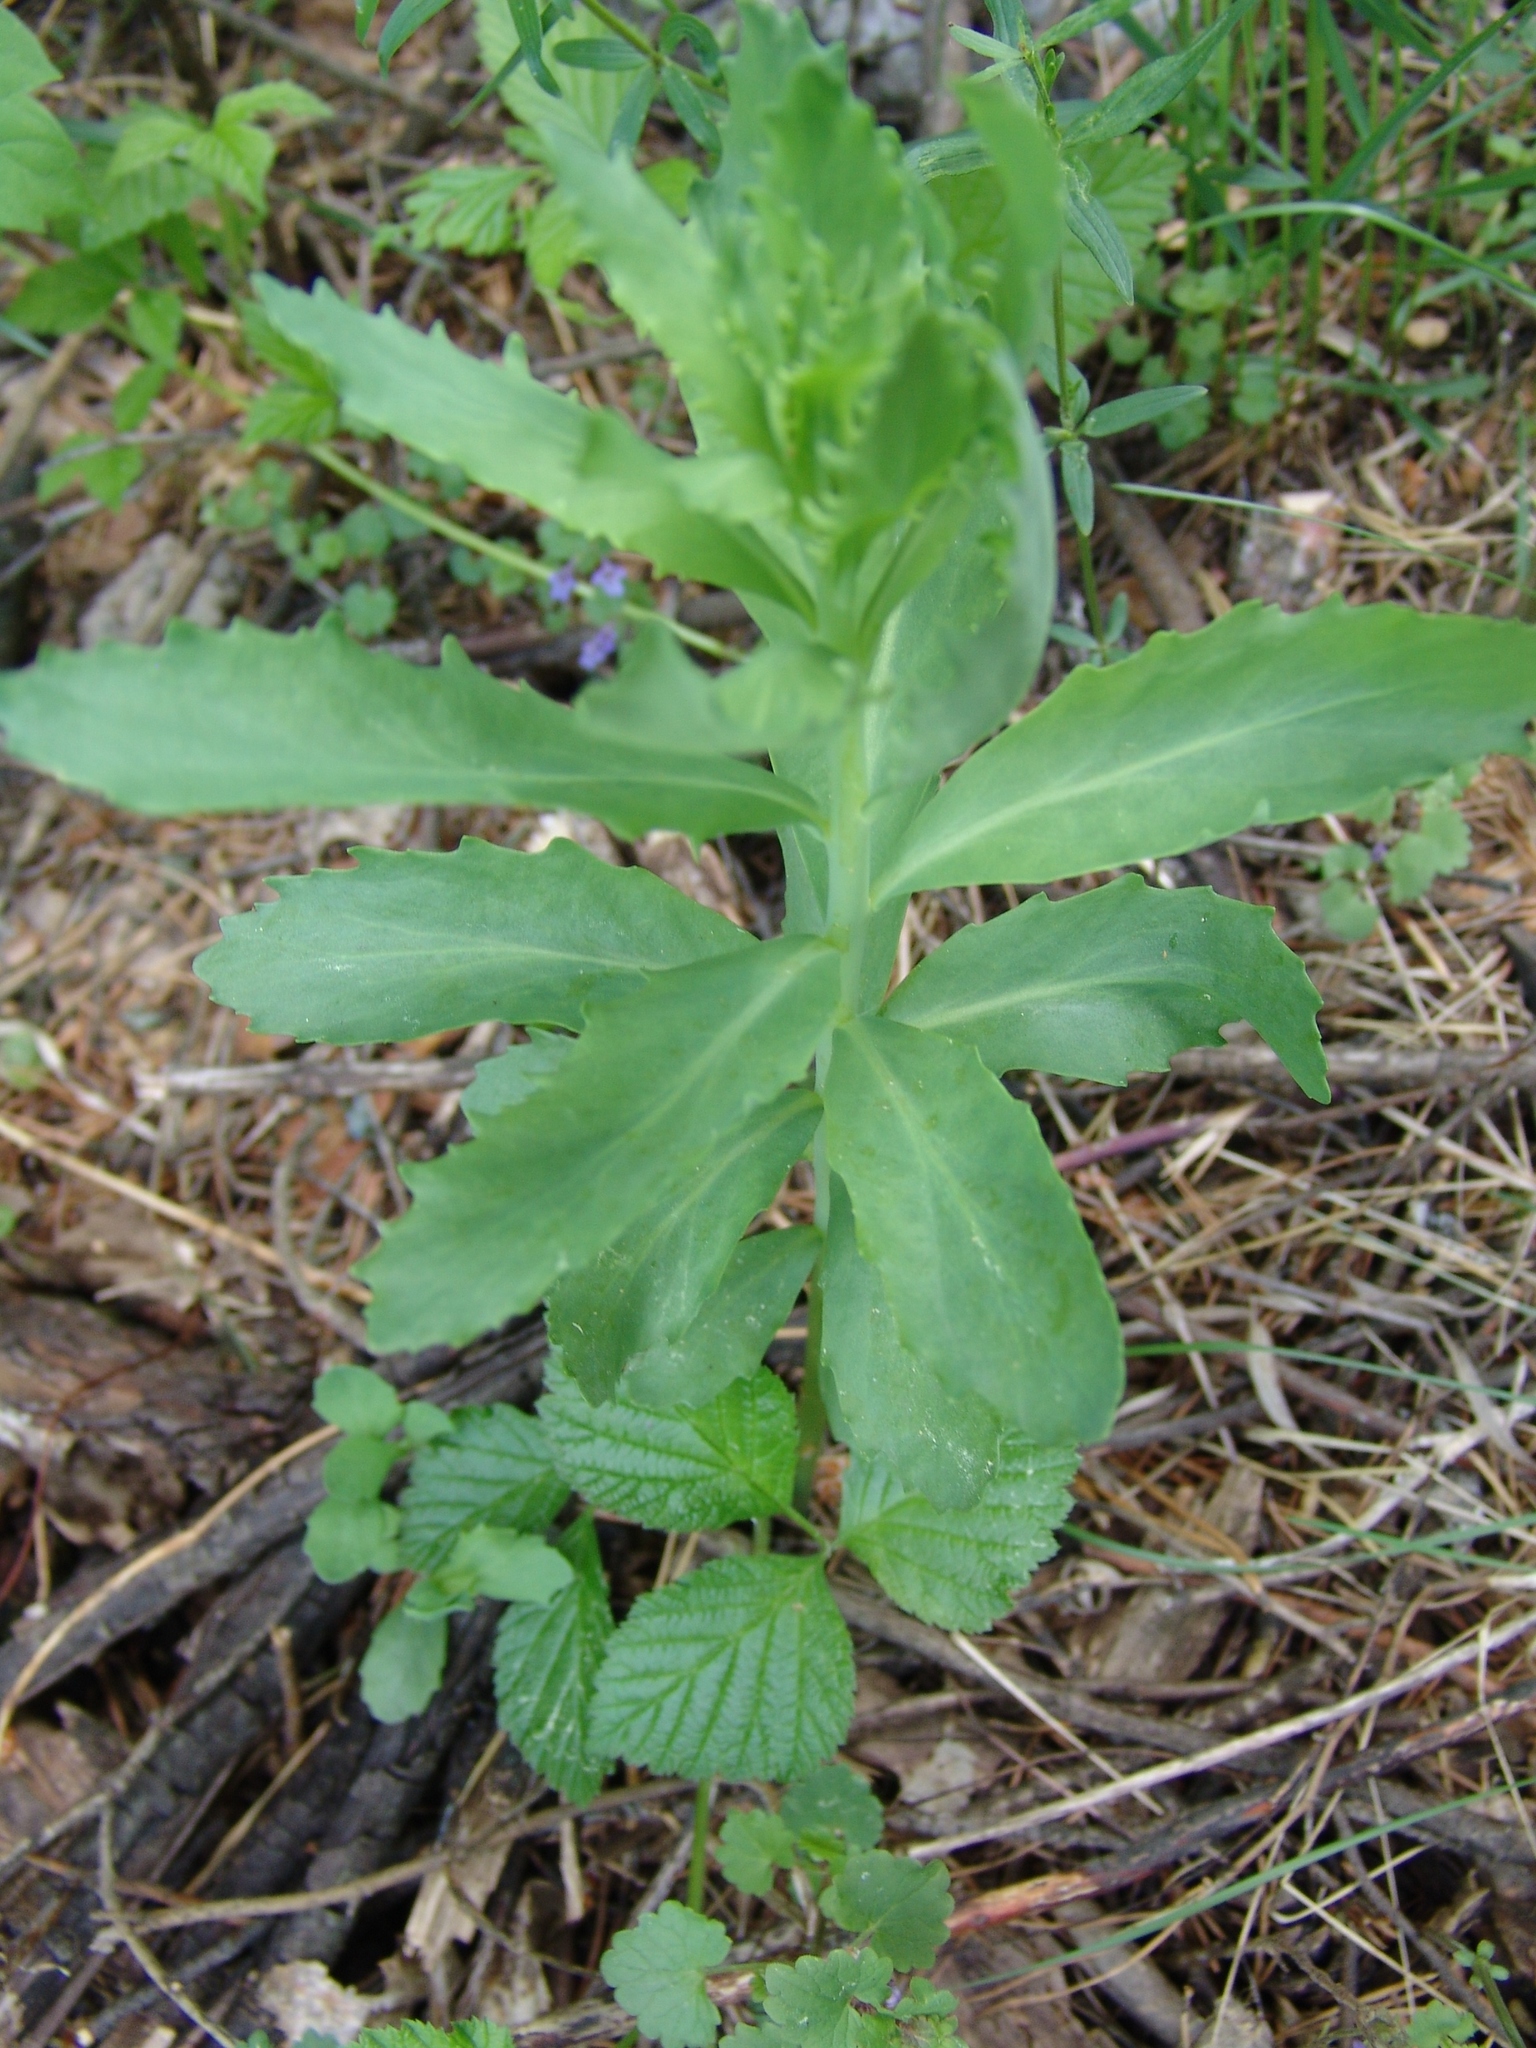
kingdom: Plantae
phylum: Tracheophyta
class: Magnoliopsida
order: Saxifragales
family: Crassulaceae
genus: Hylotelephium
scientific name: Hylotelephium telephium
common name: Live-forever
